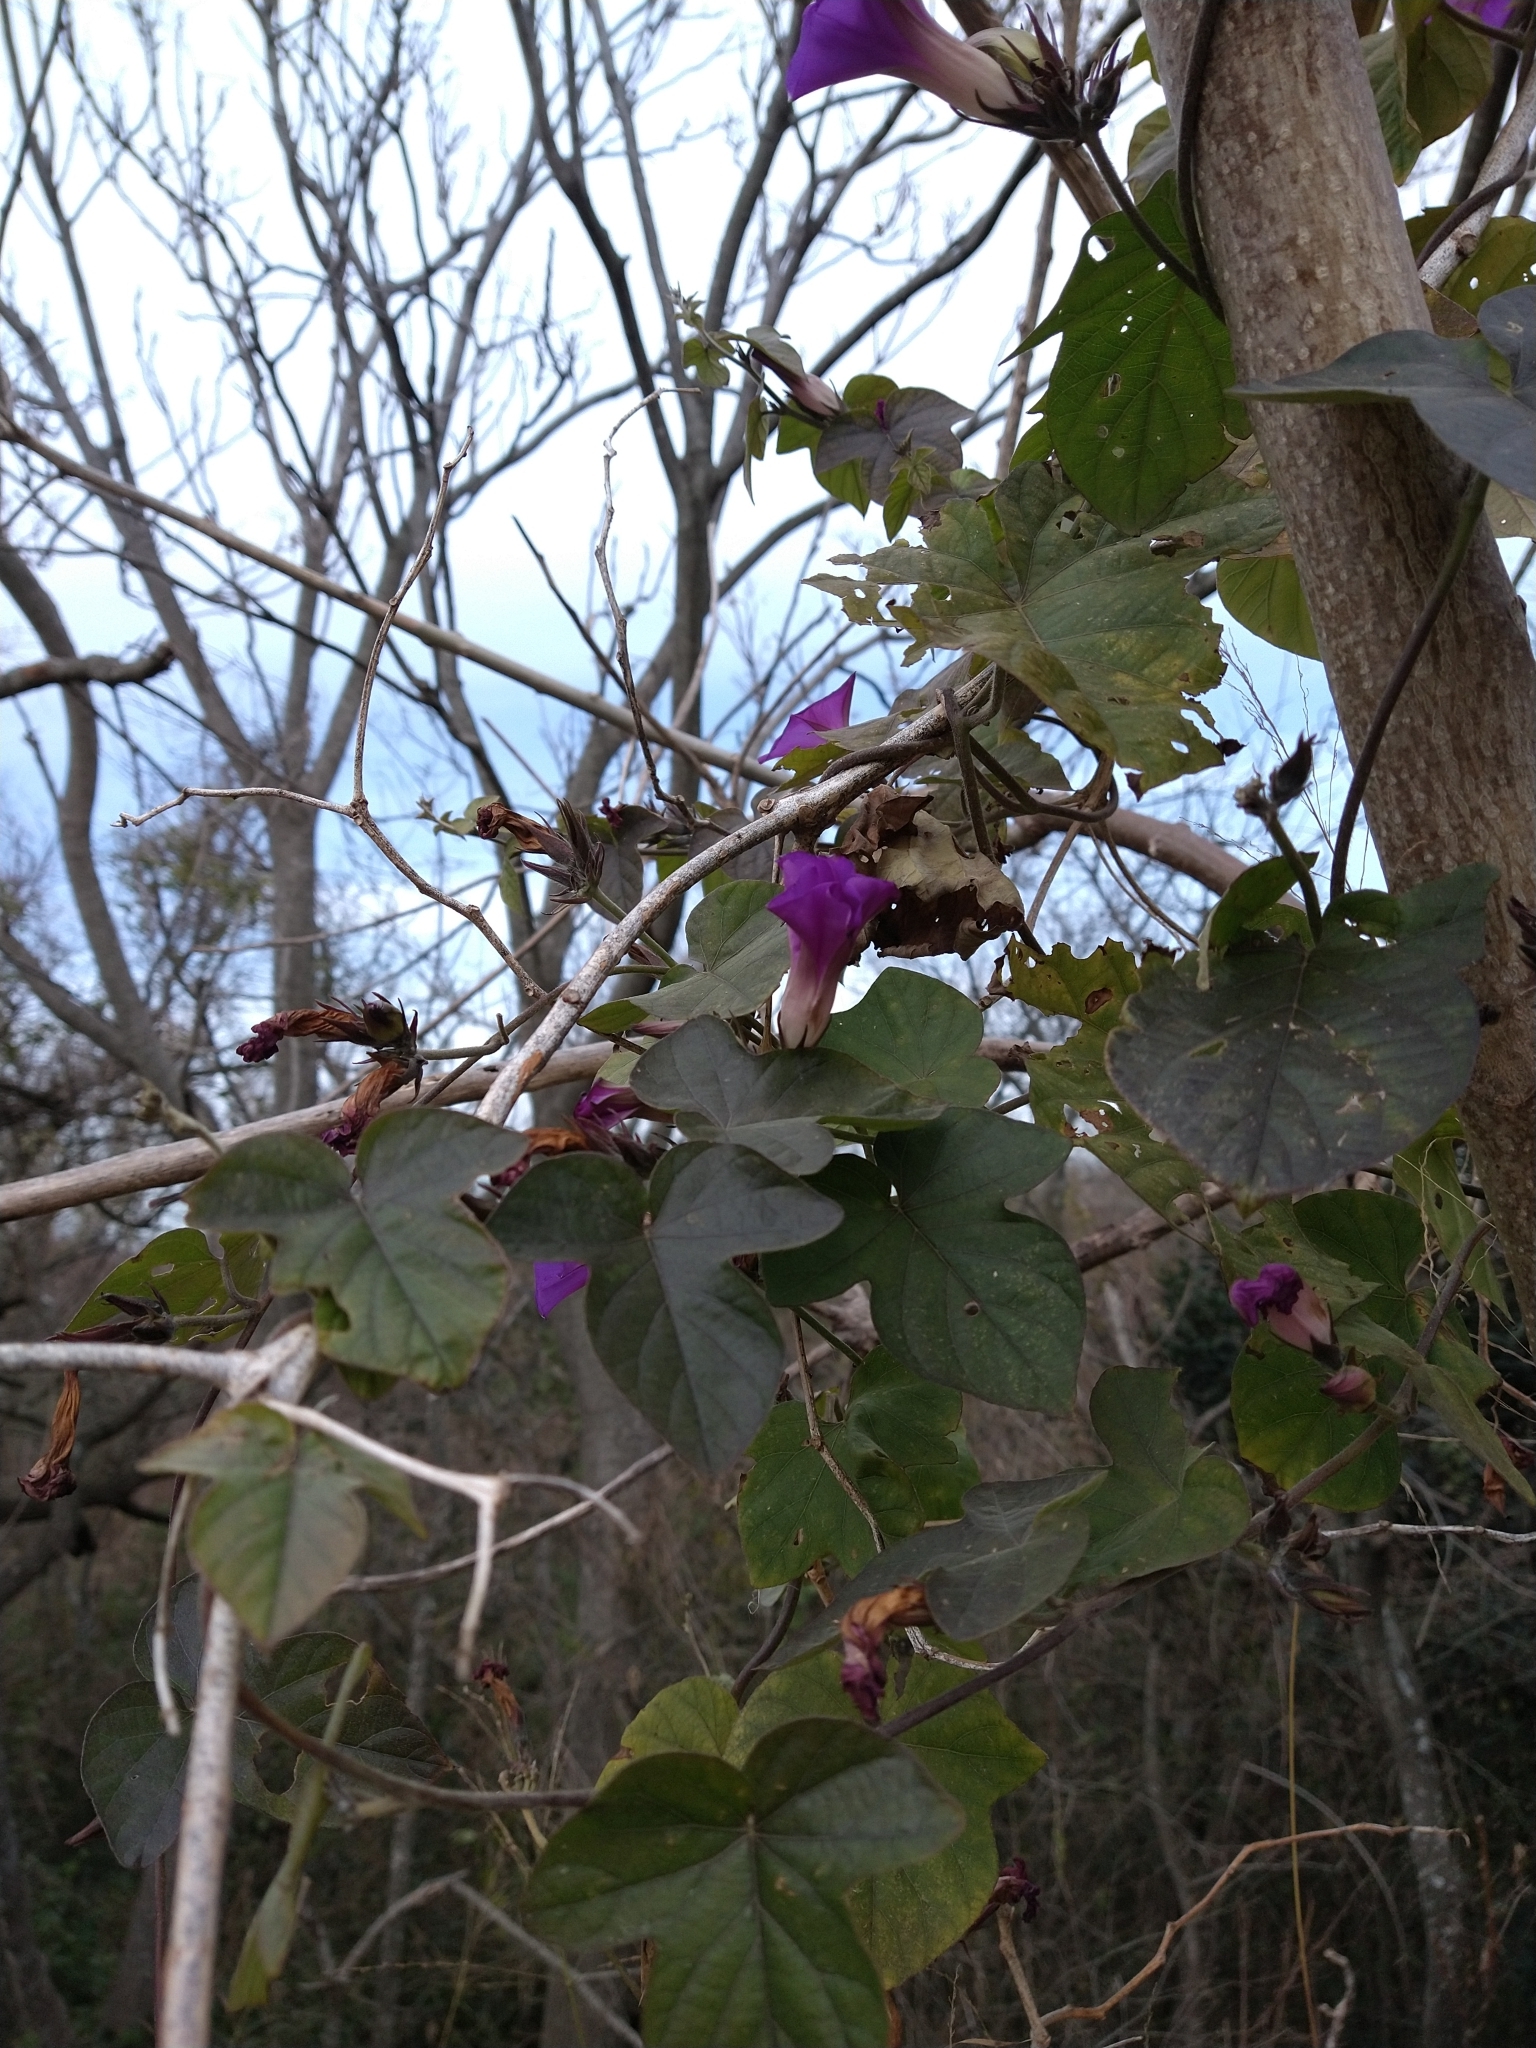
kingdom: Plantae
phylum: Tracheophyta
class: Magnoliopsida
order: Solanales
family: Convolvulaceae
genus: Ipomoea
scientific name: Ipomoea indica
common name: Blue dawnflower
